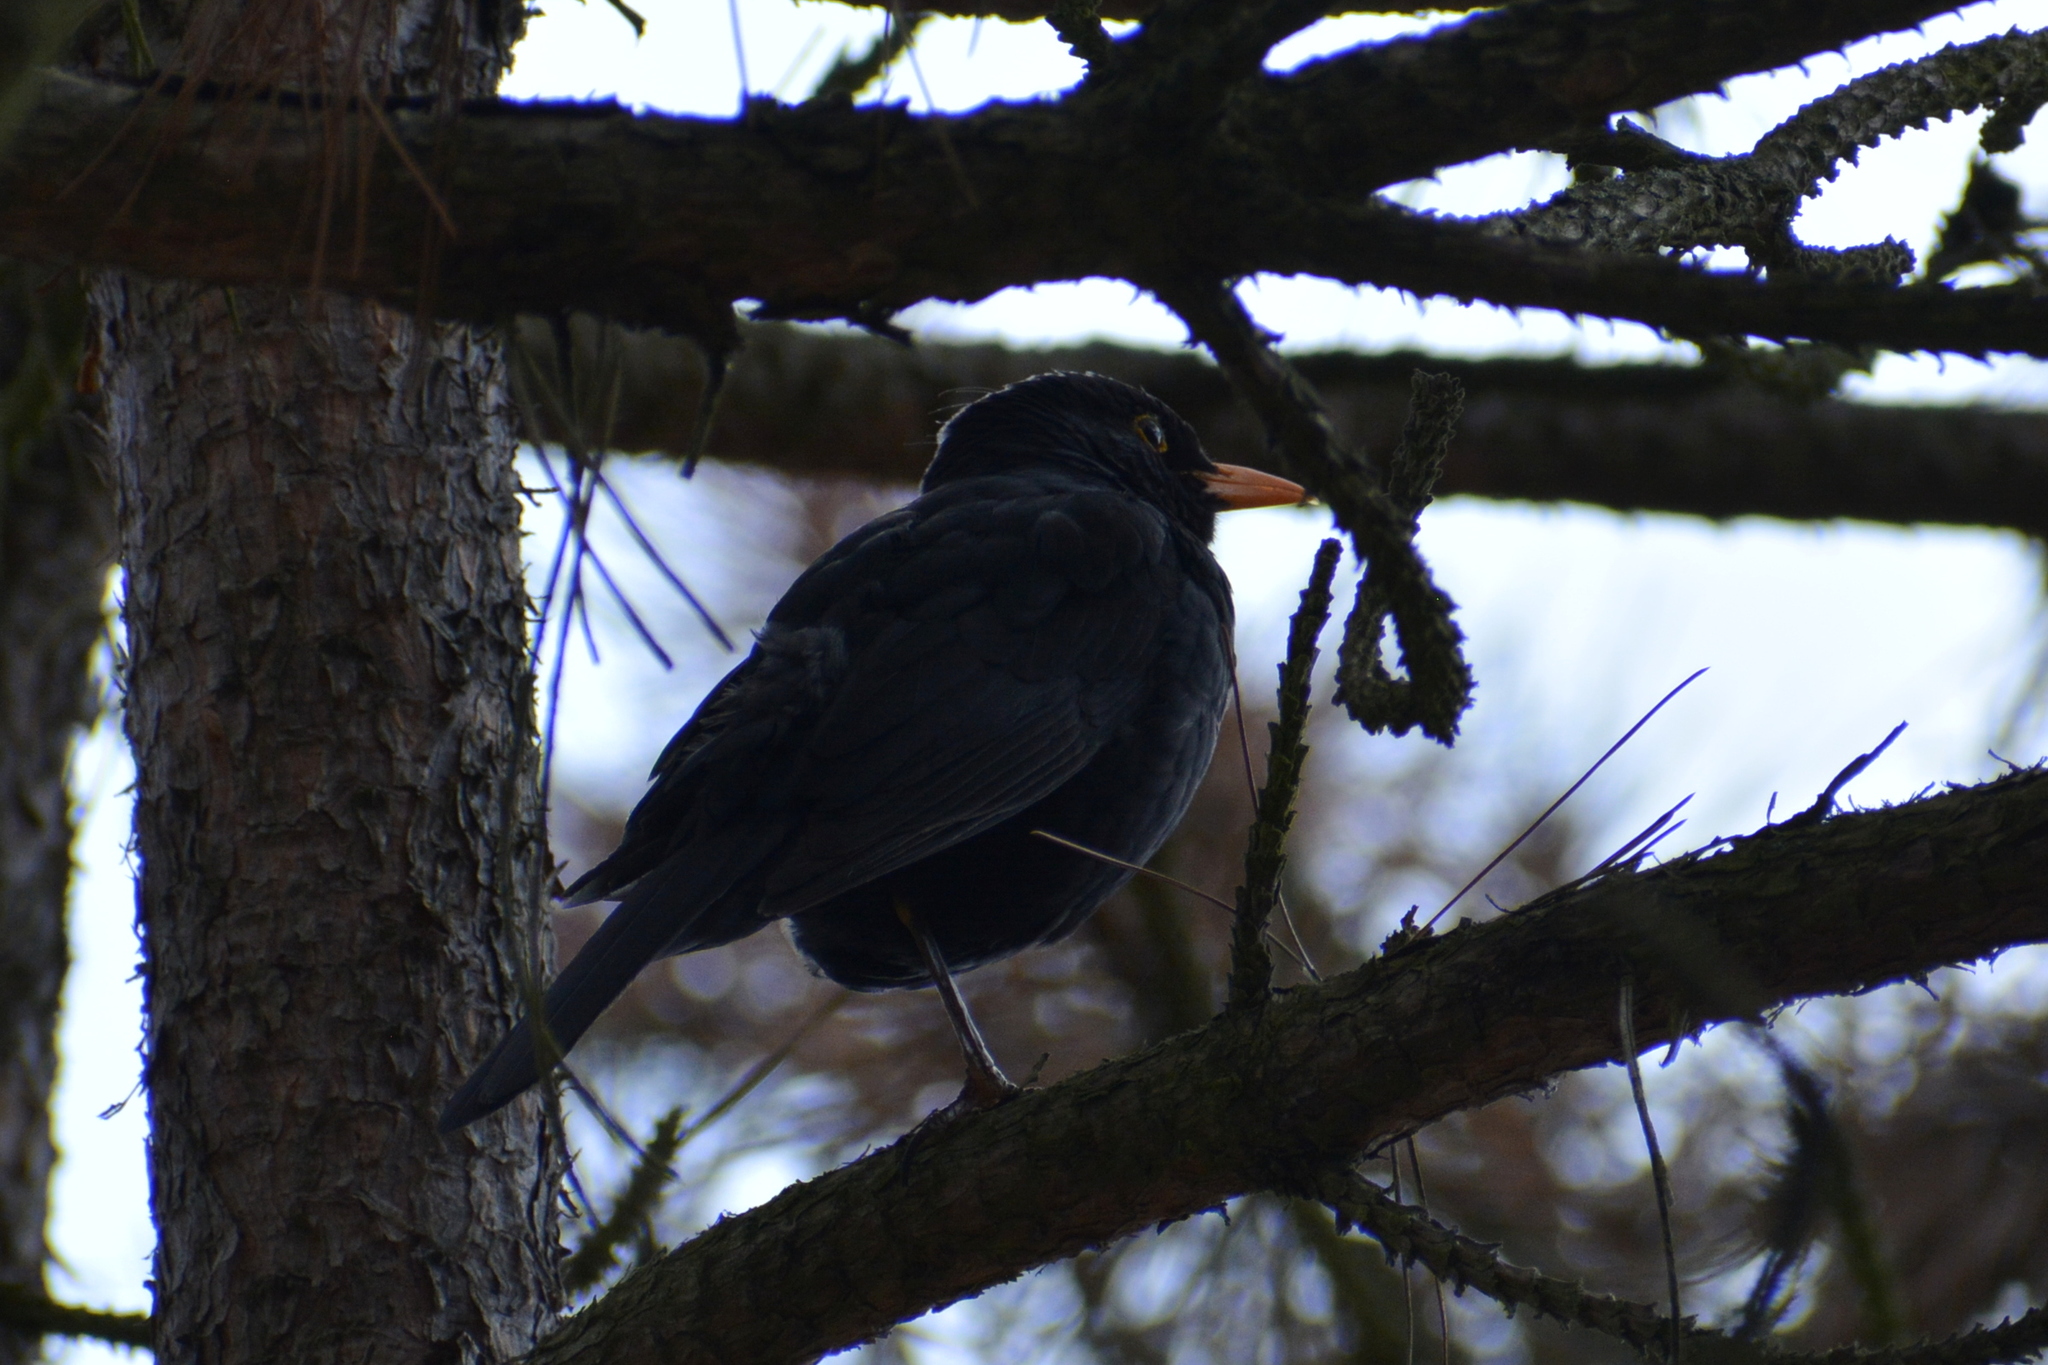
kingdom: Animalia
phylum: Chordata
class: Aves
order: Passeriformes
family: Turdidae
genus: Turdus
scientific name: Turdus merula
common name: Common blackbird
